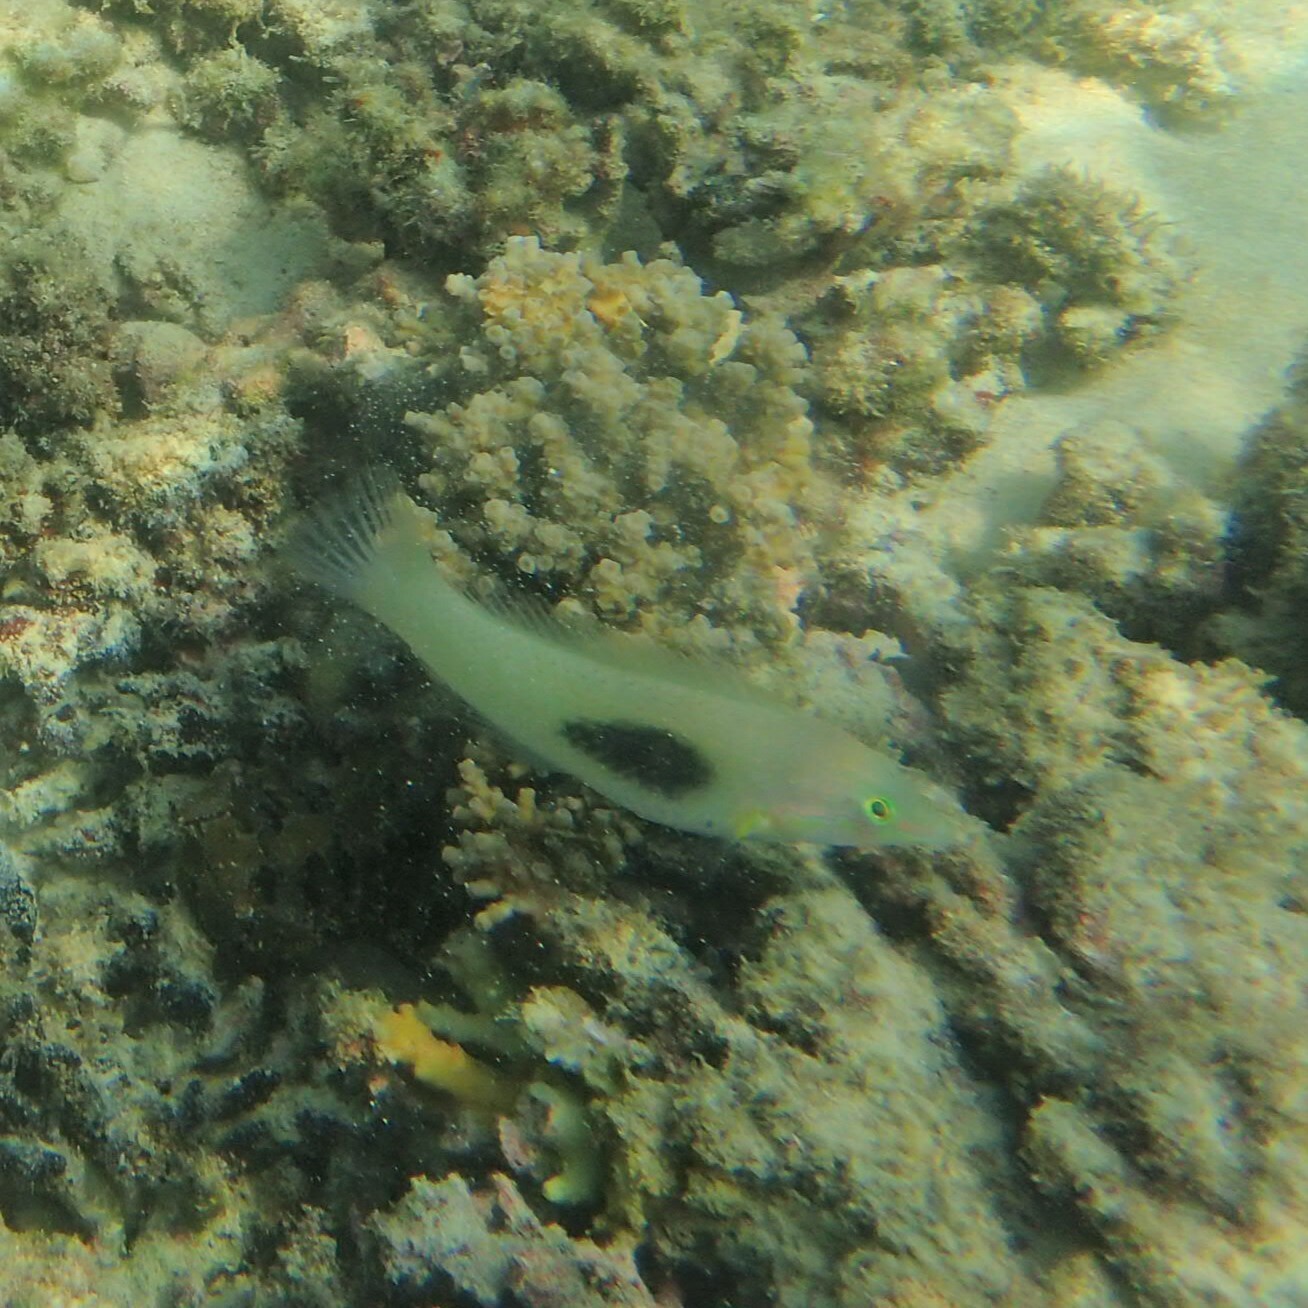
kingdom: Animalia
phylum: Chordata
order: Perciformes
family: Labridae
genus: Halichoeres
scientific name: Halichoeres chloropterus
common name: Pastel-green wrasse
